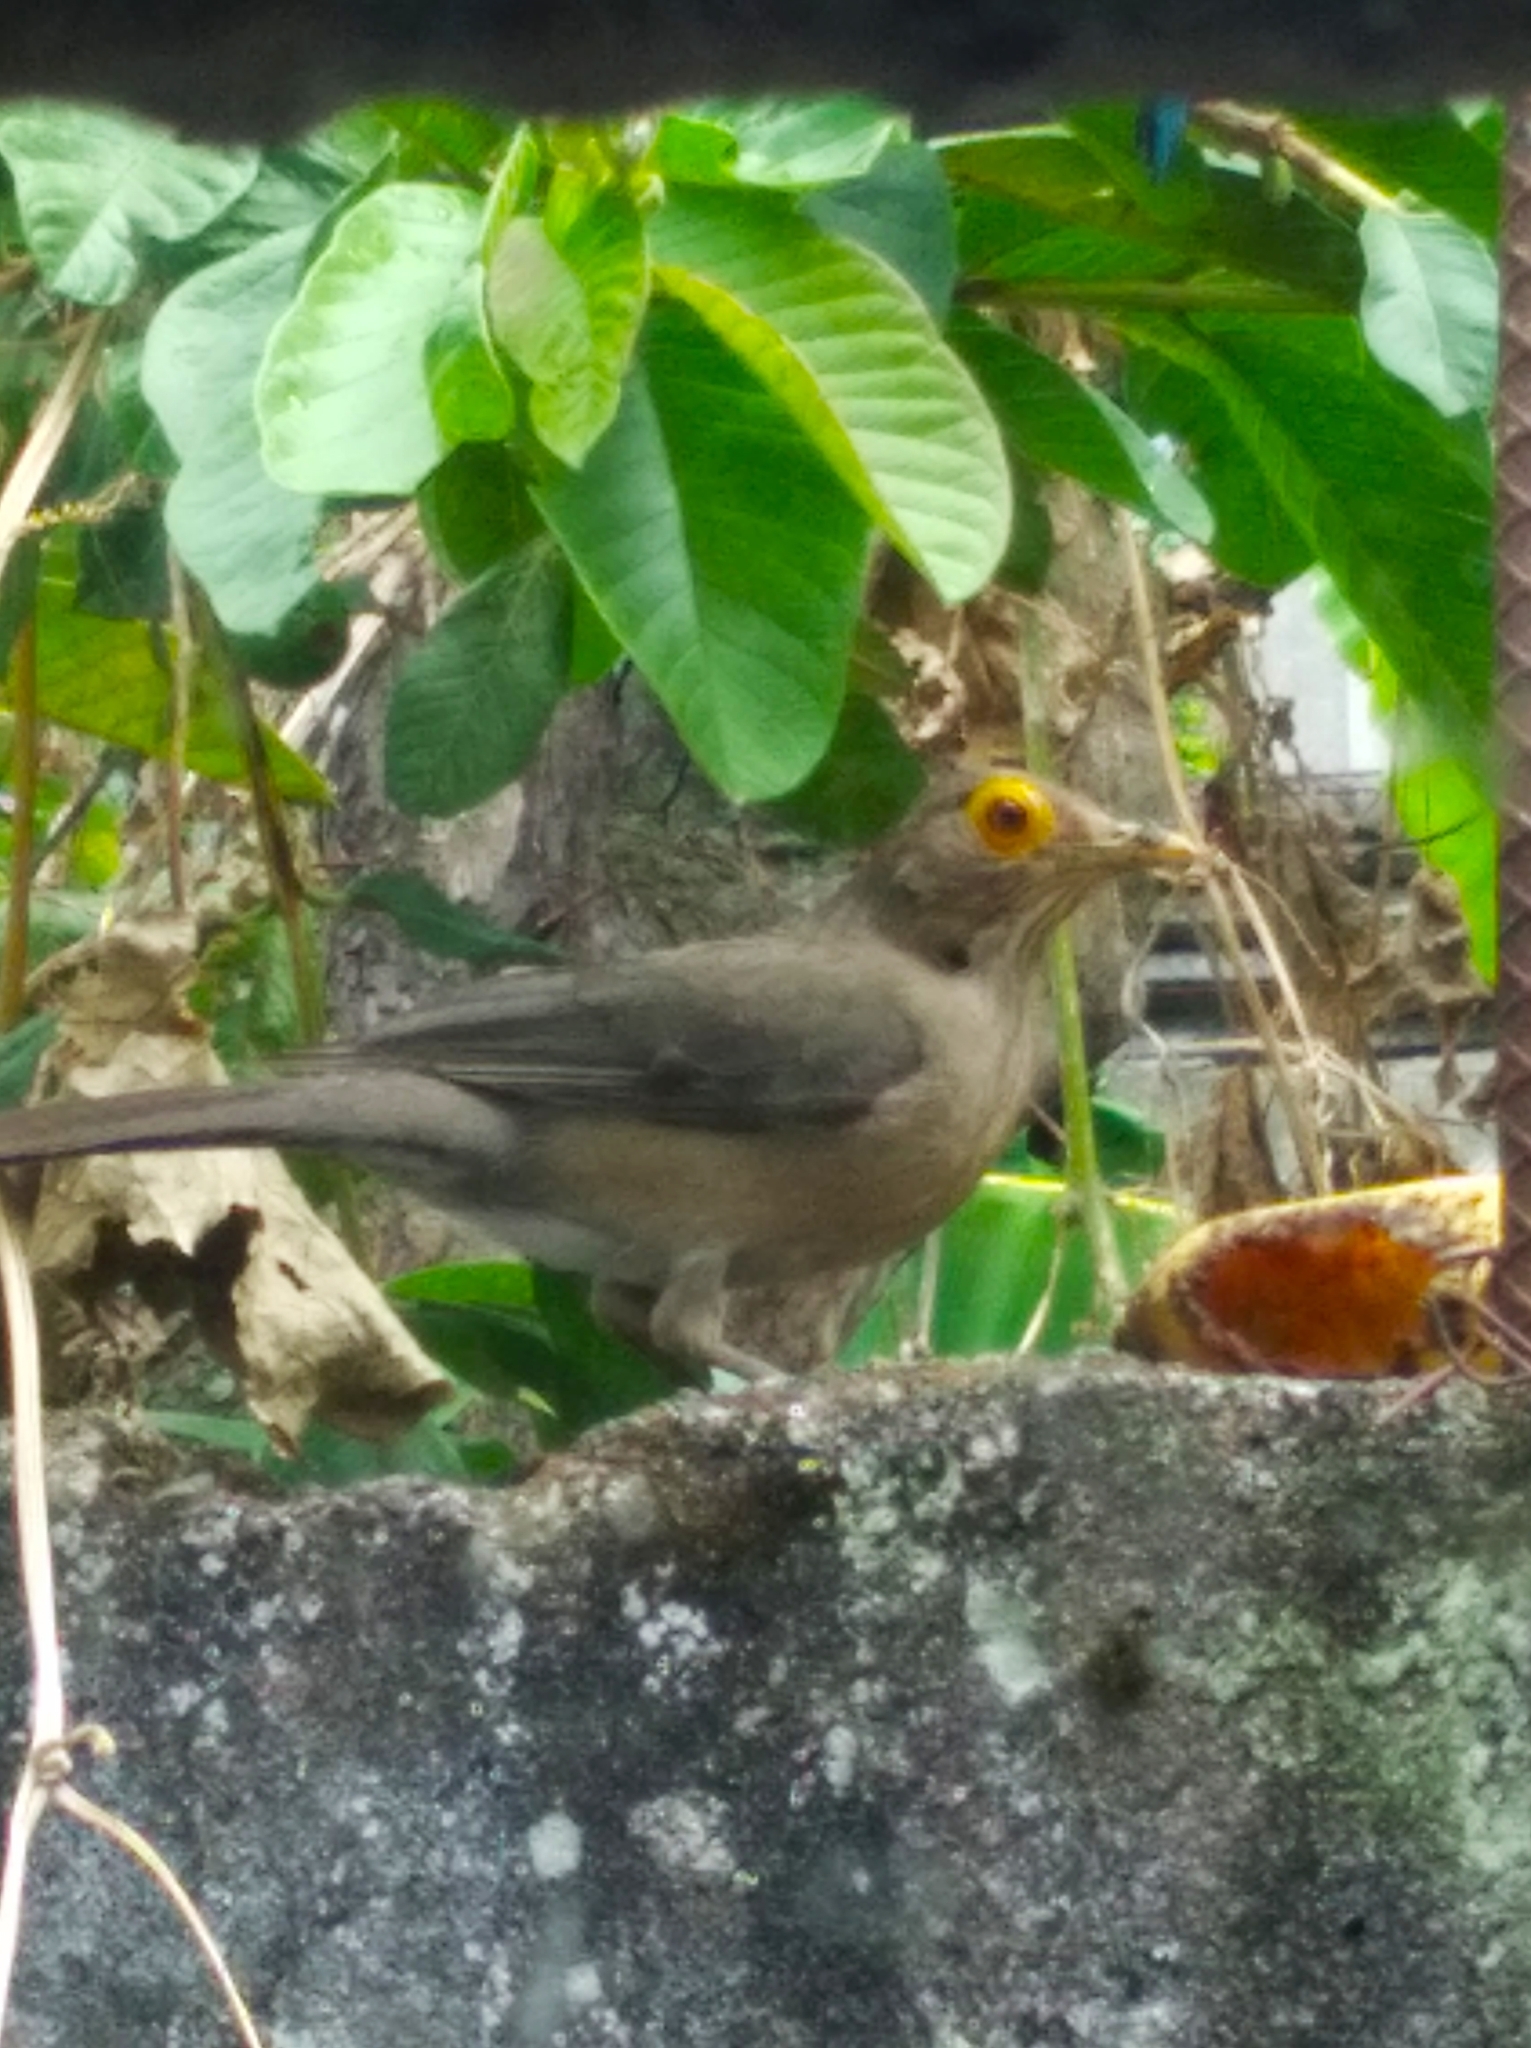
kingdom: Animalia
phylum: Chordata
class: Aves
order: Passeriformes
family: Turdidae
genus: Turdus
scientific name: Turdus nudigenis
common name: Spectacled thrush
